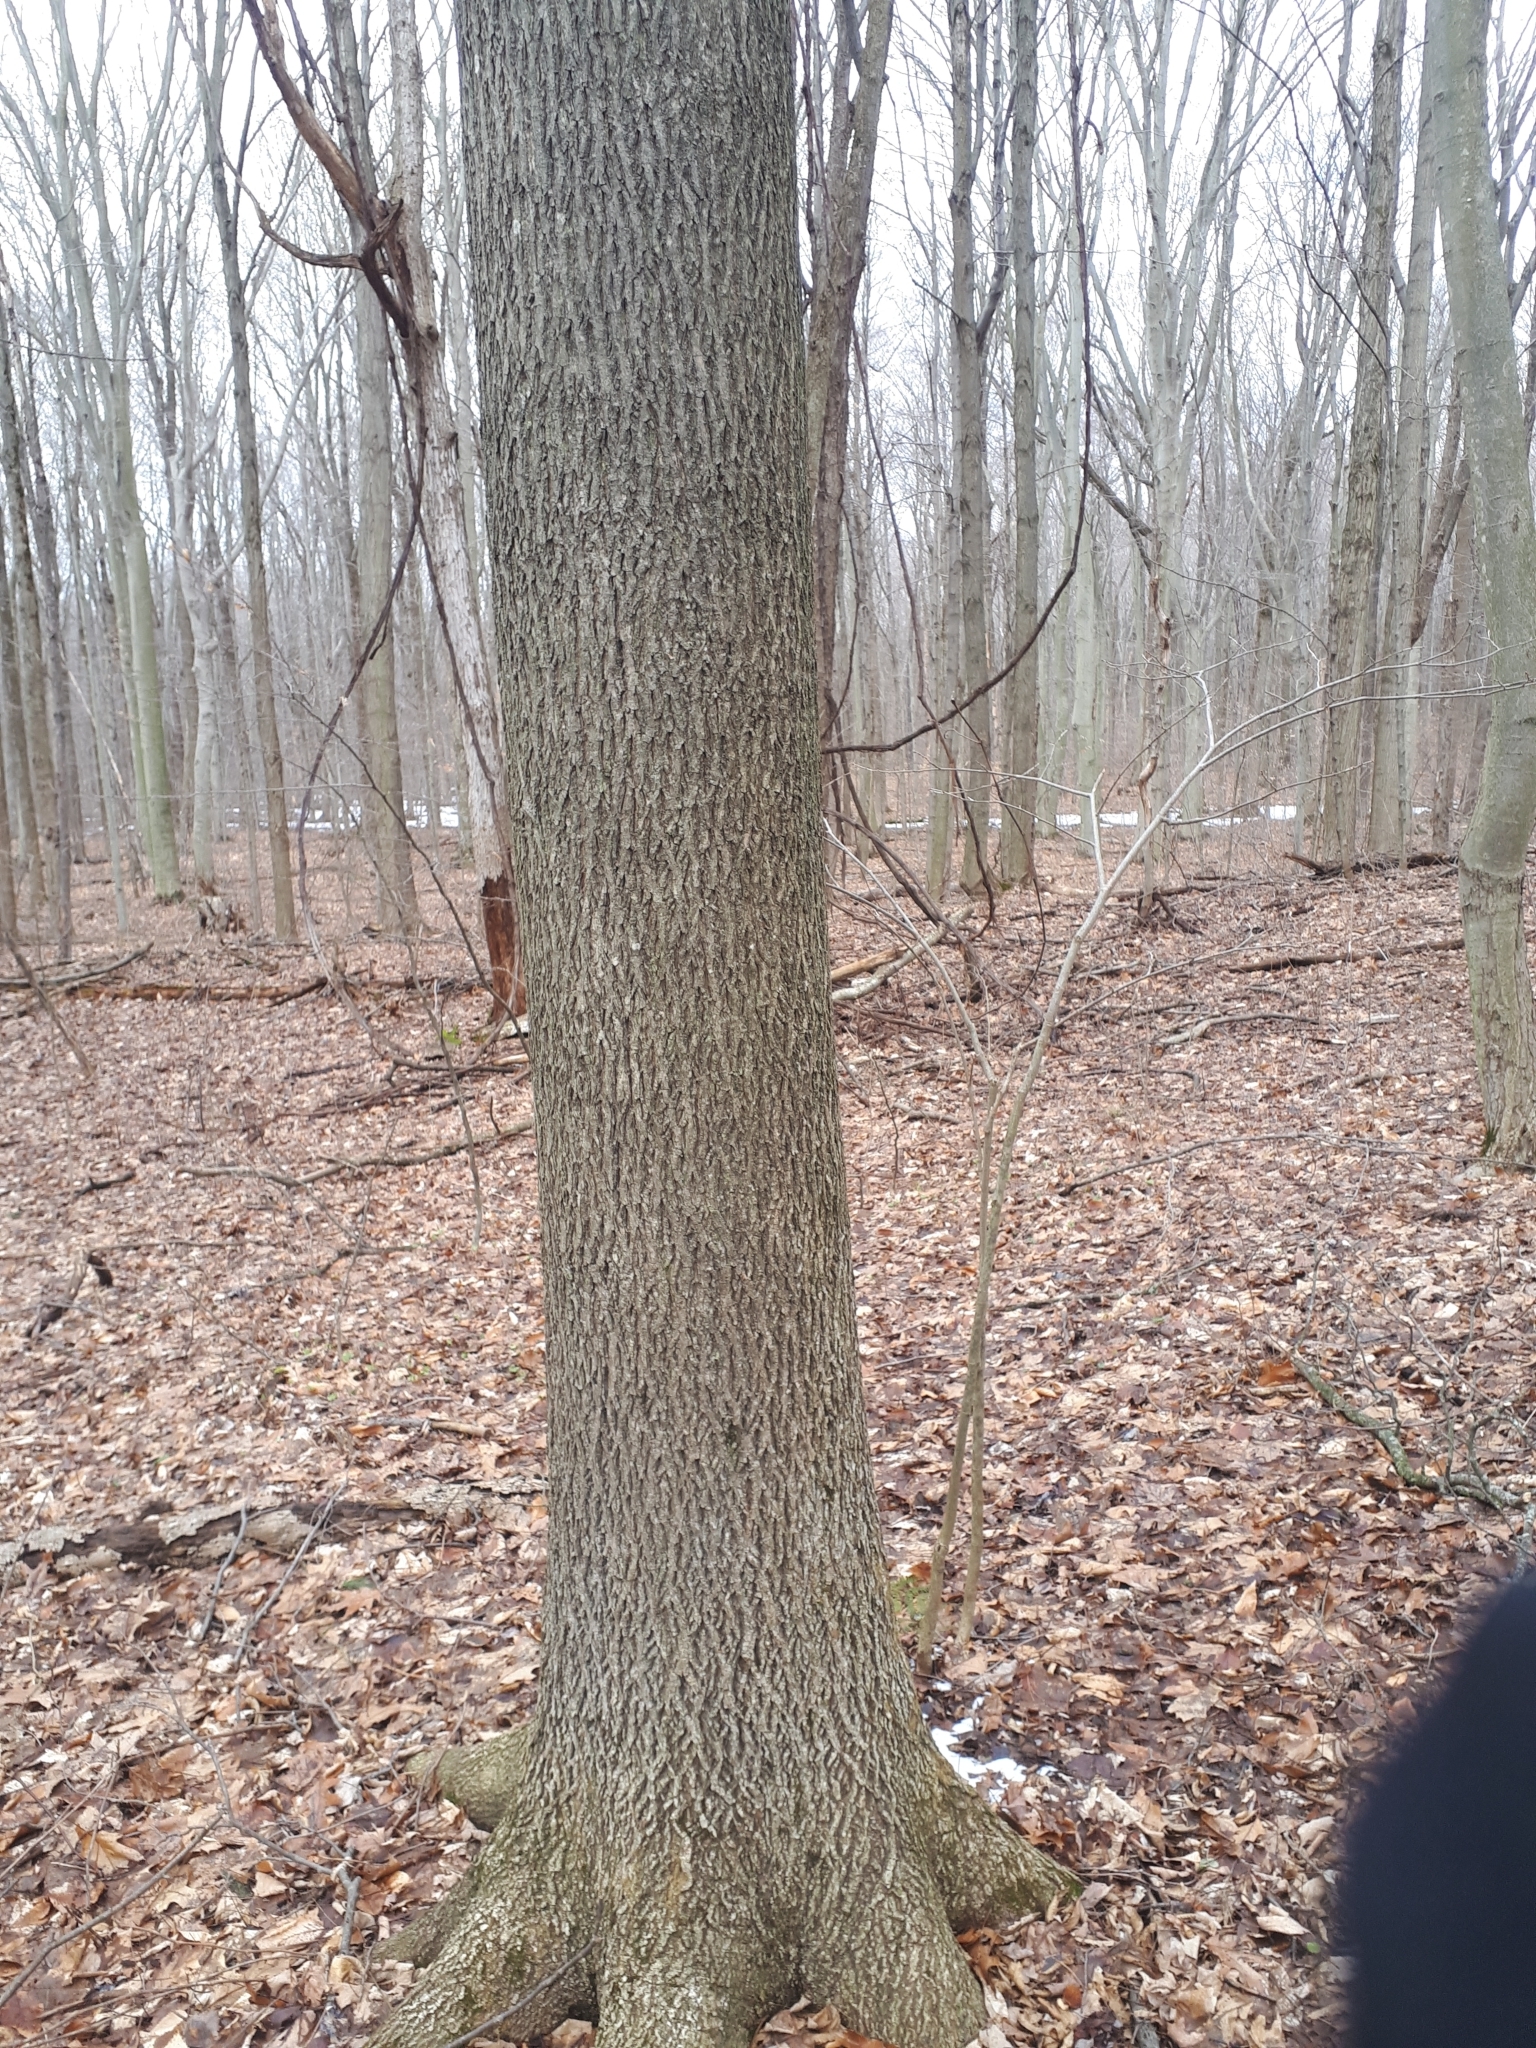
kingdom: Plantae
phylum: Tracheophyta
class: Magnoliopsida
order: Fagales
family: Juglandaceae
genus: Carya
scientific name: Carya cordiformis
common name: Bitternut hickory
